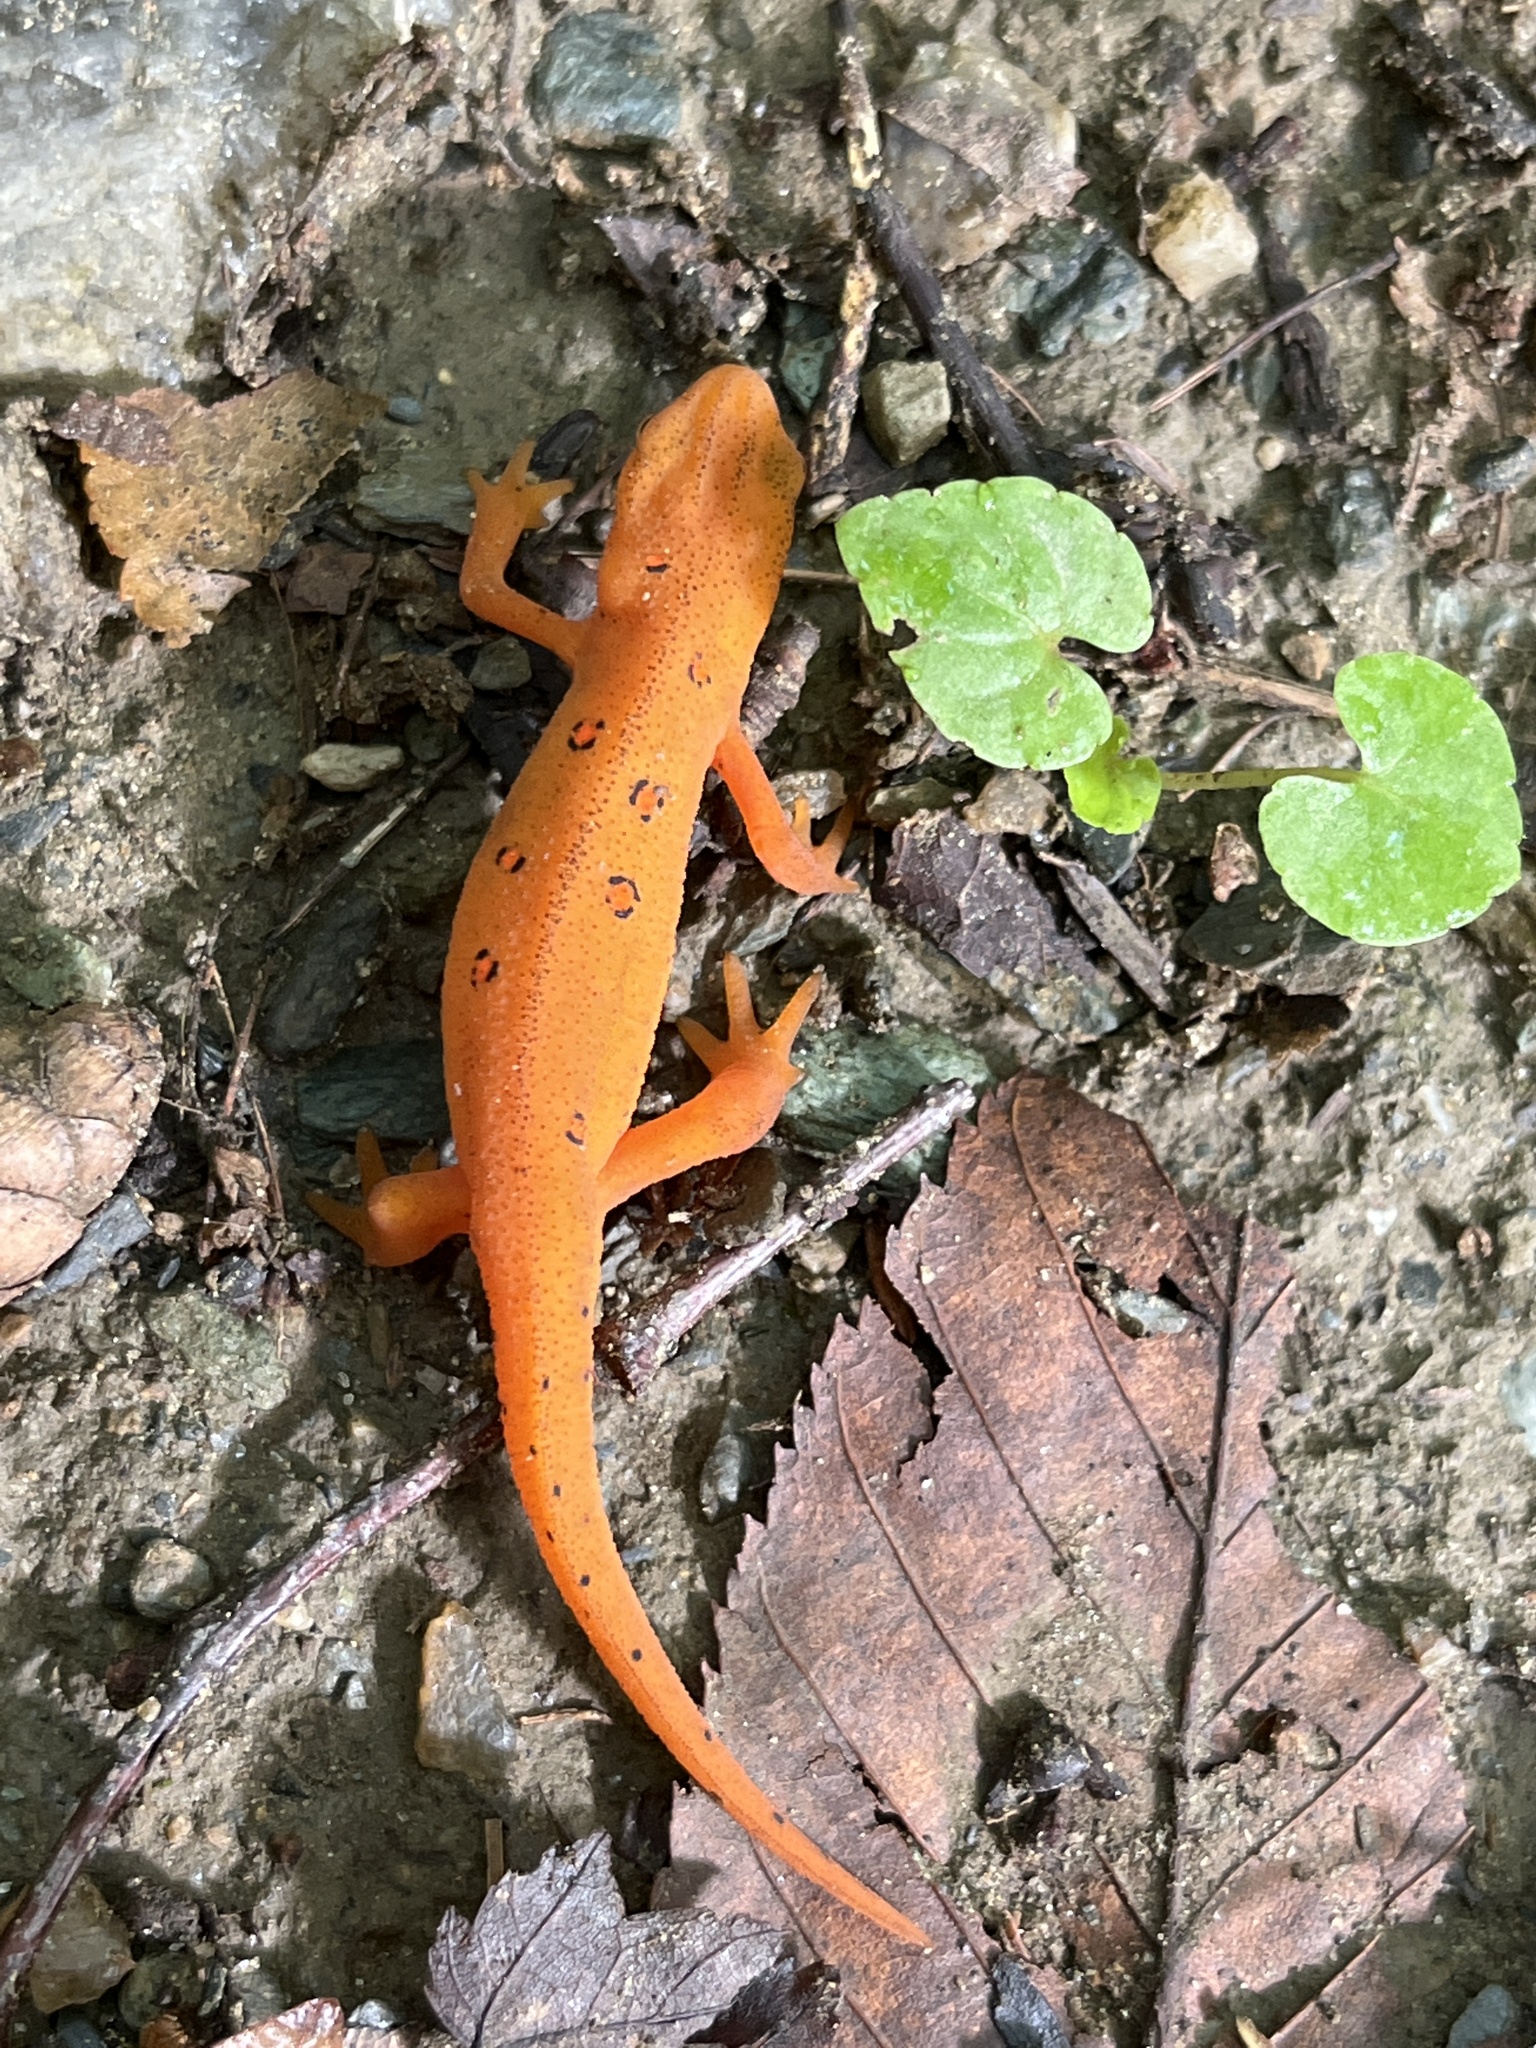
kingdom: Animalia
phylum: Chordata
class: Amphibia
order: Caudata
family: Salamandridae
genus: Notophthalmus
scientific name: Notophthalmus viridescens
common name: Eastern newt
